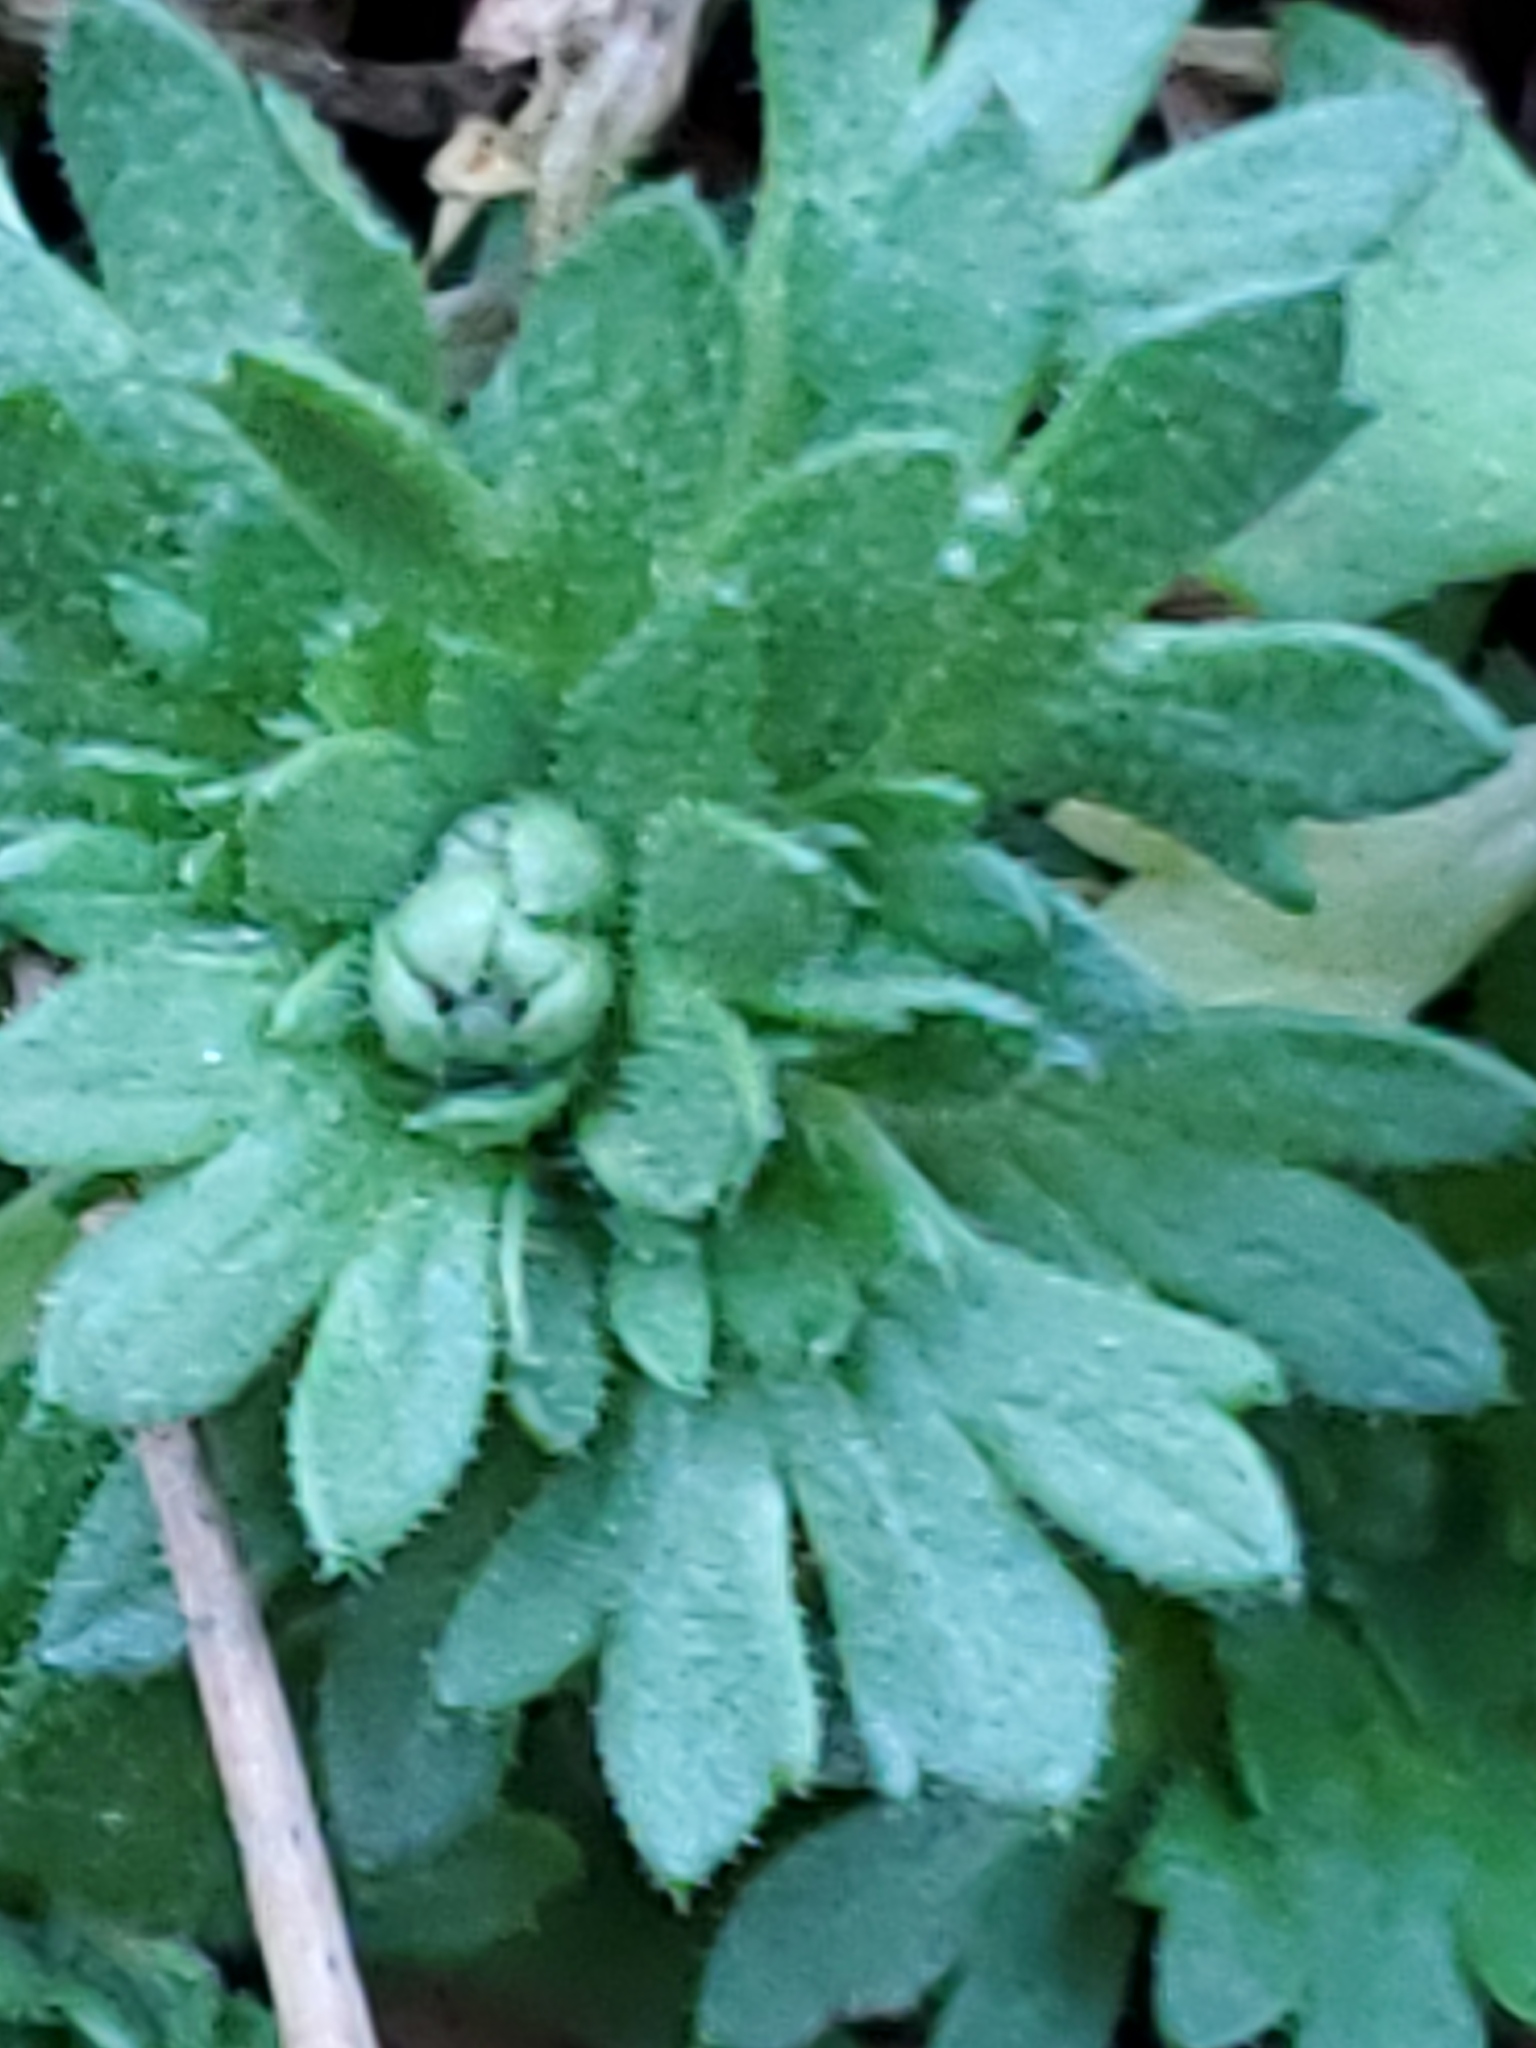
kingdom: Plantae
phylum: Tracheophyta
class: Magnoliopsida
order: Saxifragales
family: Saxifragaceae
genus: Saxifraga
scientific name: Saxifraga cespitosa
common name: Tufted saxifrage
